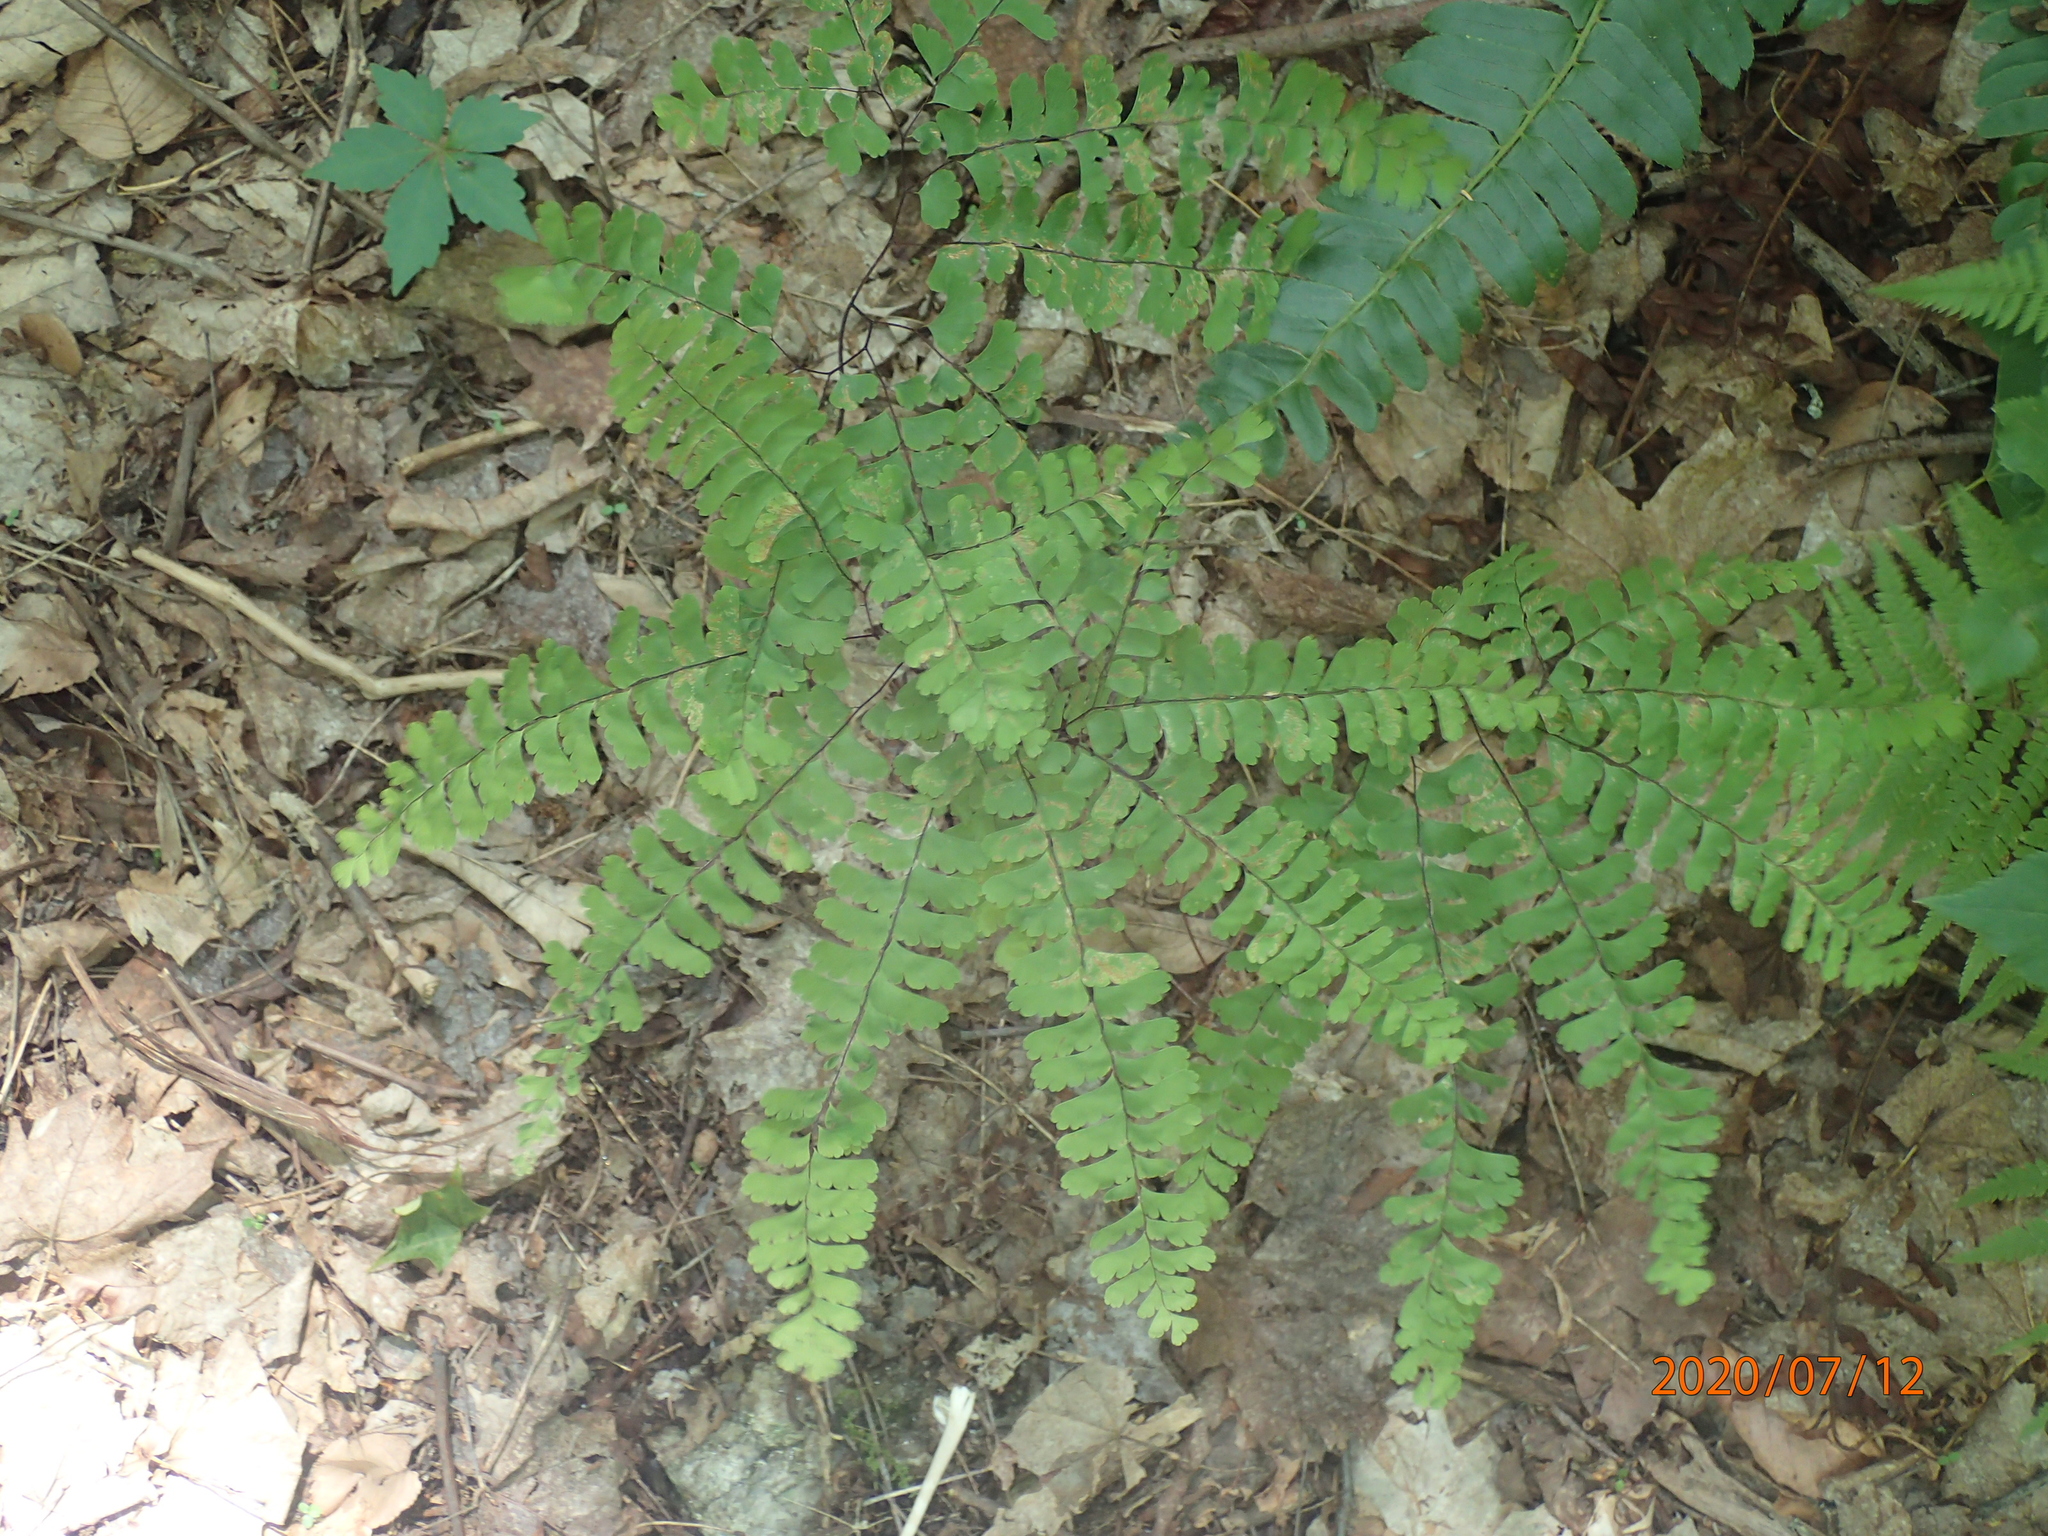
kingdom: Plantae
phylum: Tracheophyta
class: Polypodiopsida
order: Polypodiales
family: Pteridaceae
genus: Adiantum
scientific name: Adiantum pedatum
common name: Five-finger fern
